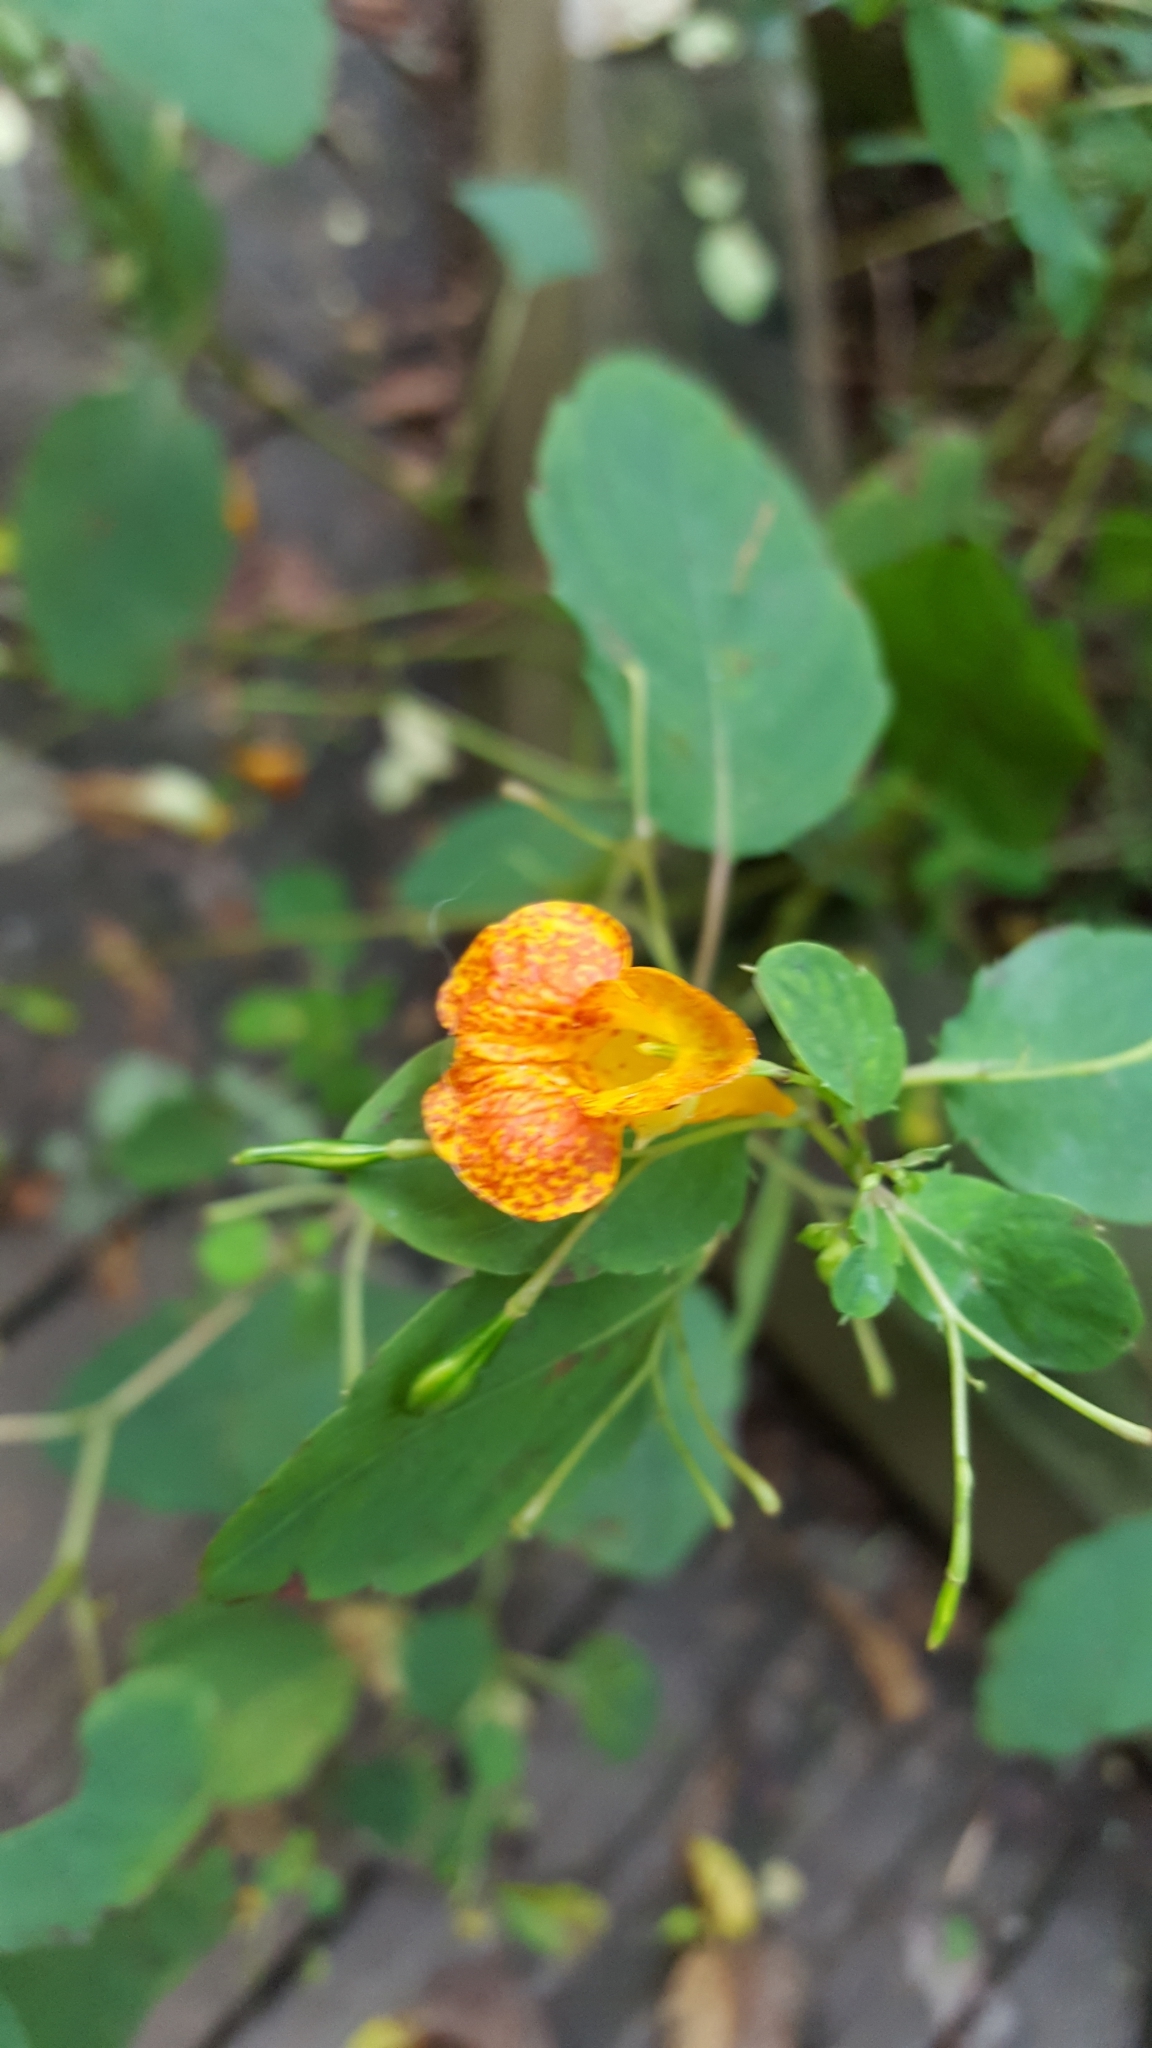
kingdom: Plantae
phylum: Tracheophyta
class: Magnoliopsida
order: Ericales
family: Balsaminaceae
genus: Impatiens
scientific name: Impatiens capensis
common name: Orange balsam
